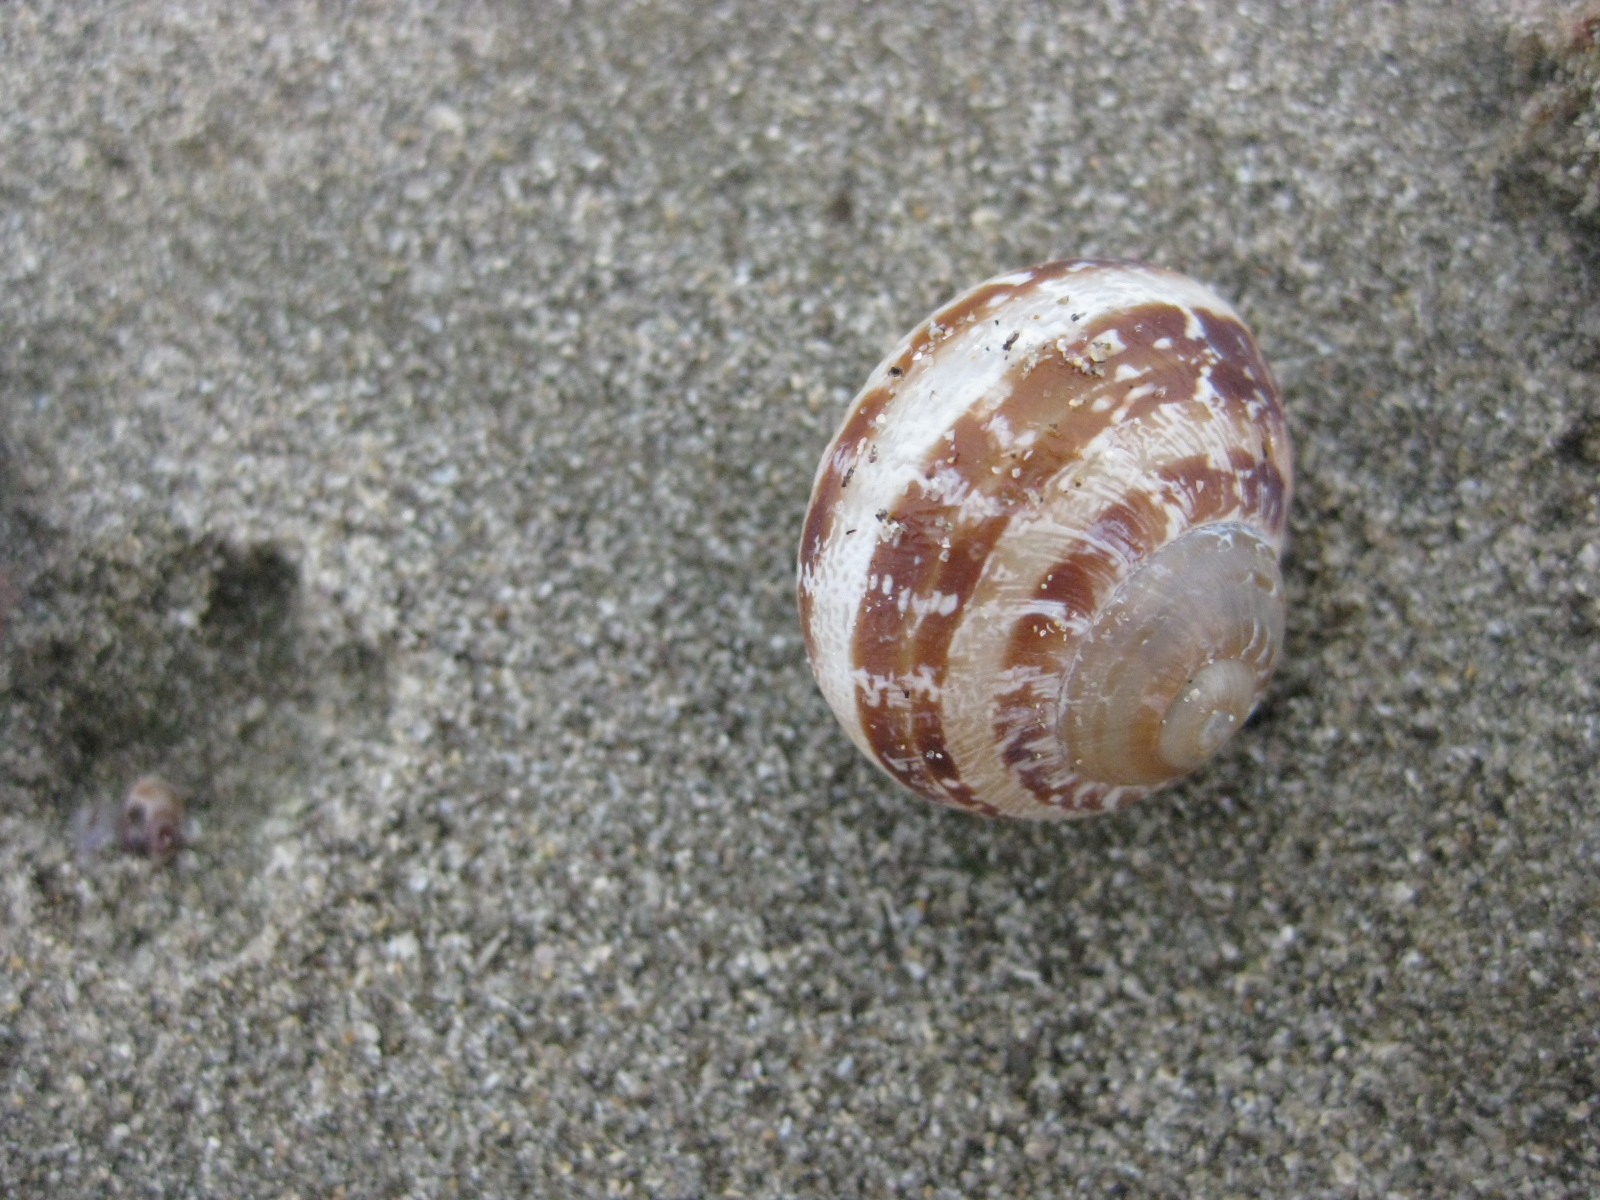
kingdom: Animalia
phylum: Mollusca
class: Gastropoda
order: Stylommatophora
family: Helicidae
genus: Cornu
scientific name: Cornu aspersum
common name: Brown garden snail
